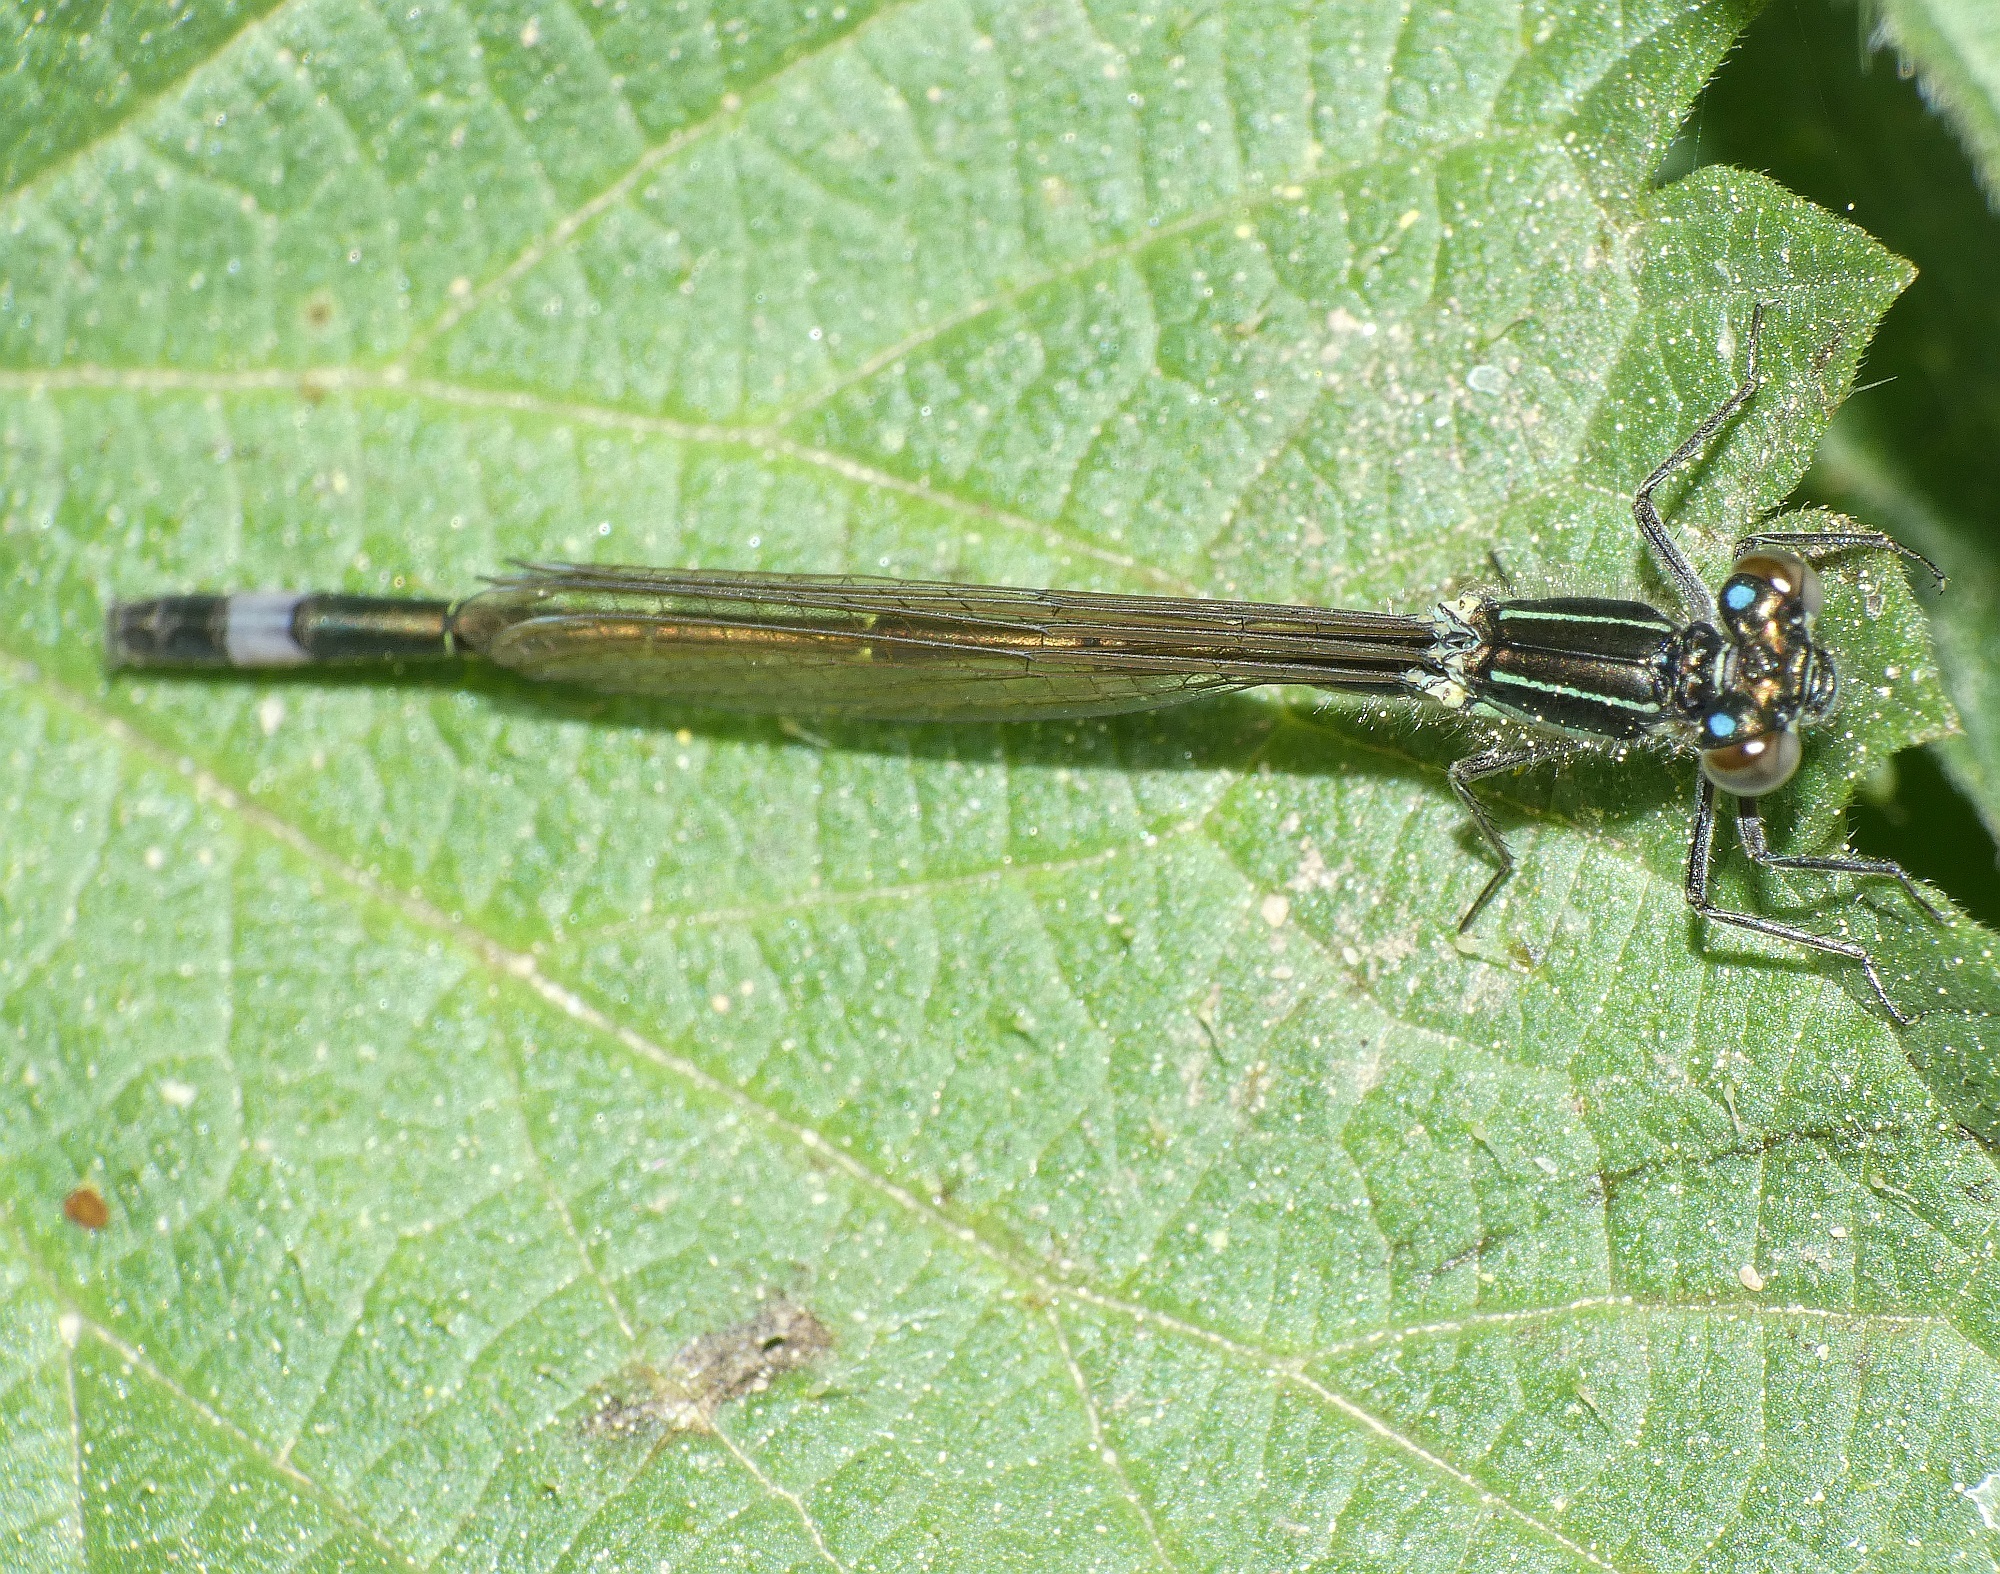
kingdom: Animalia
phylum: Arthropoda
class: Insecta
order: Odonata
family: Coenagrionidae
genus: Ischnura
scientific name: Ischnura elegans
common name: Blue-tailed damselfly
